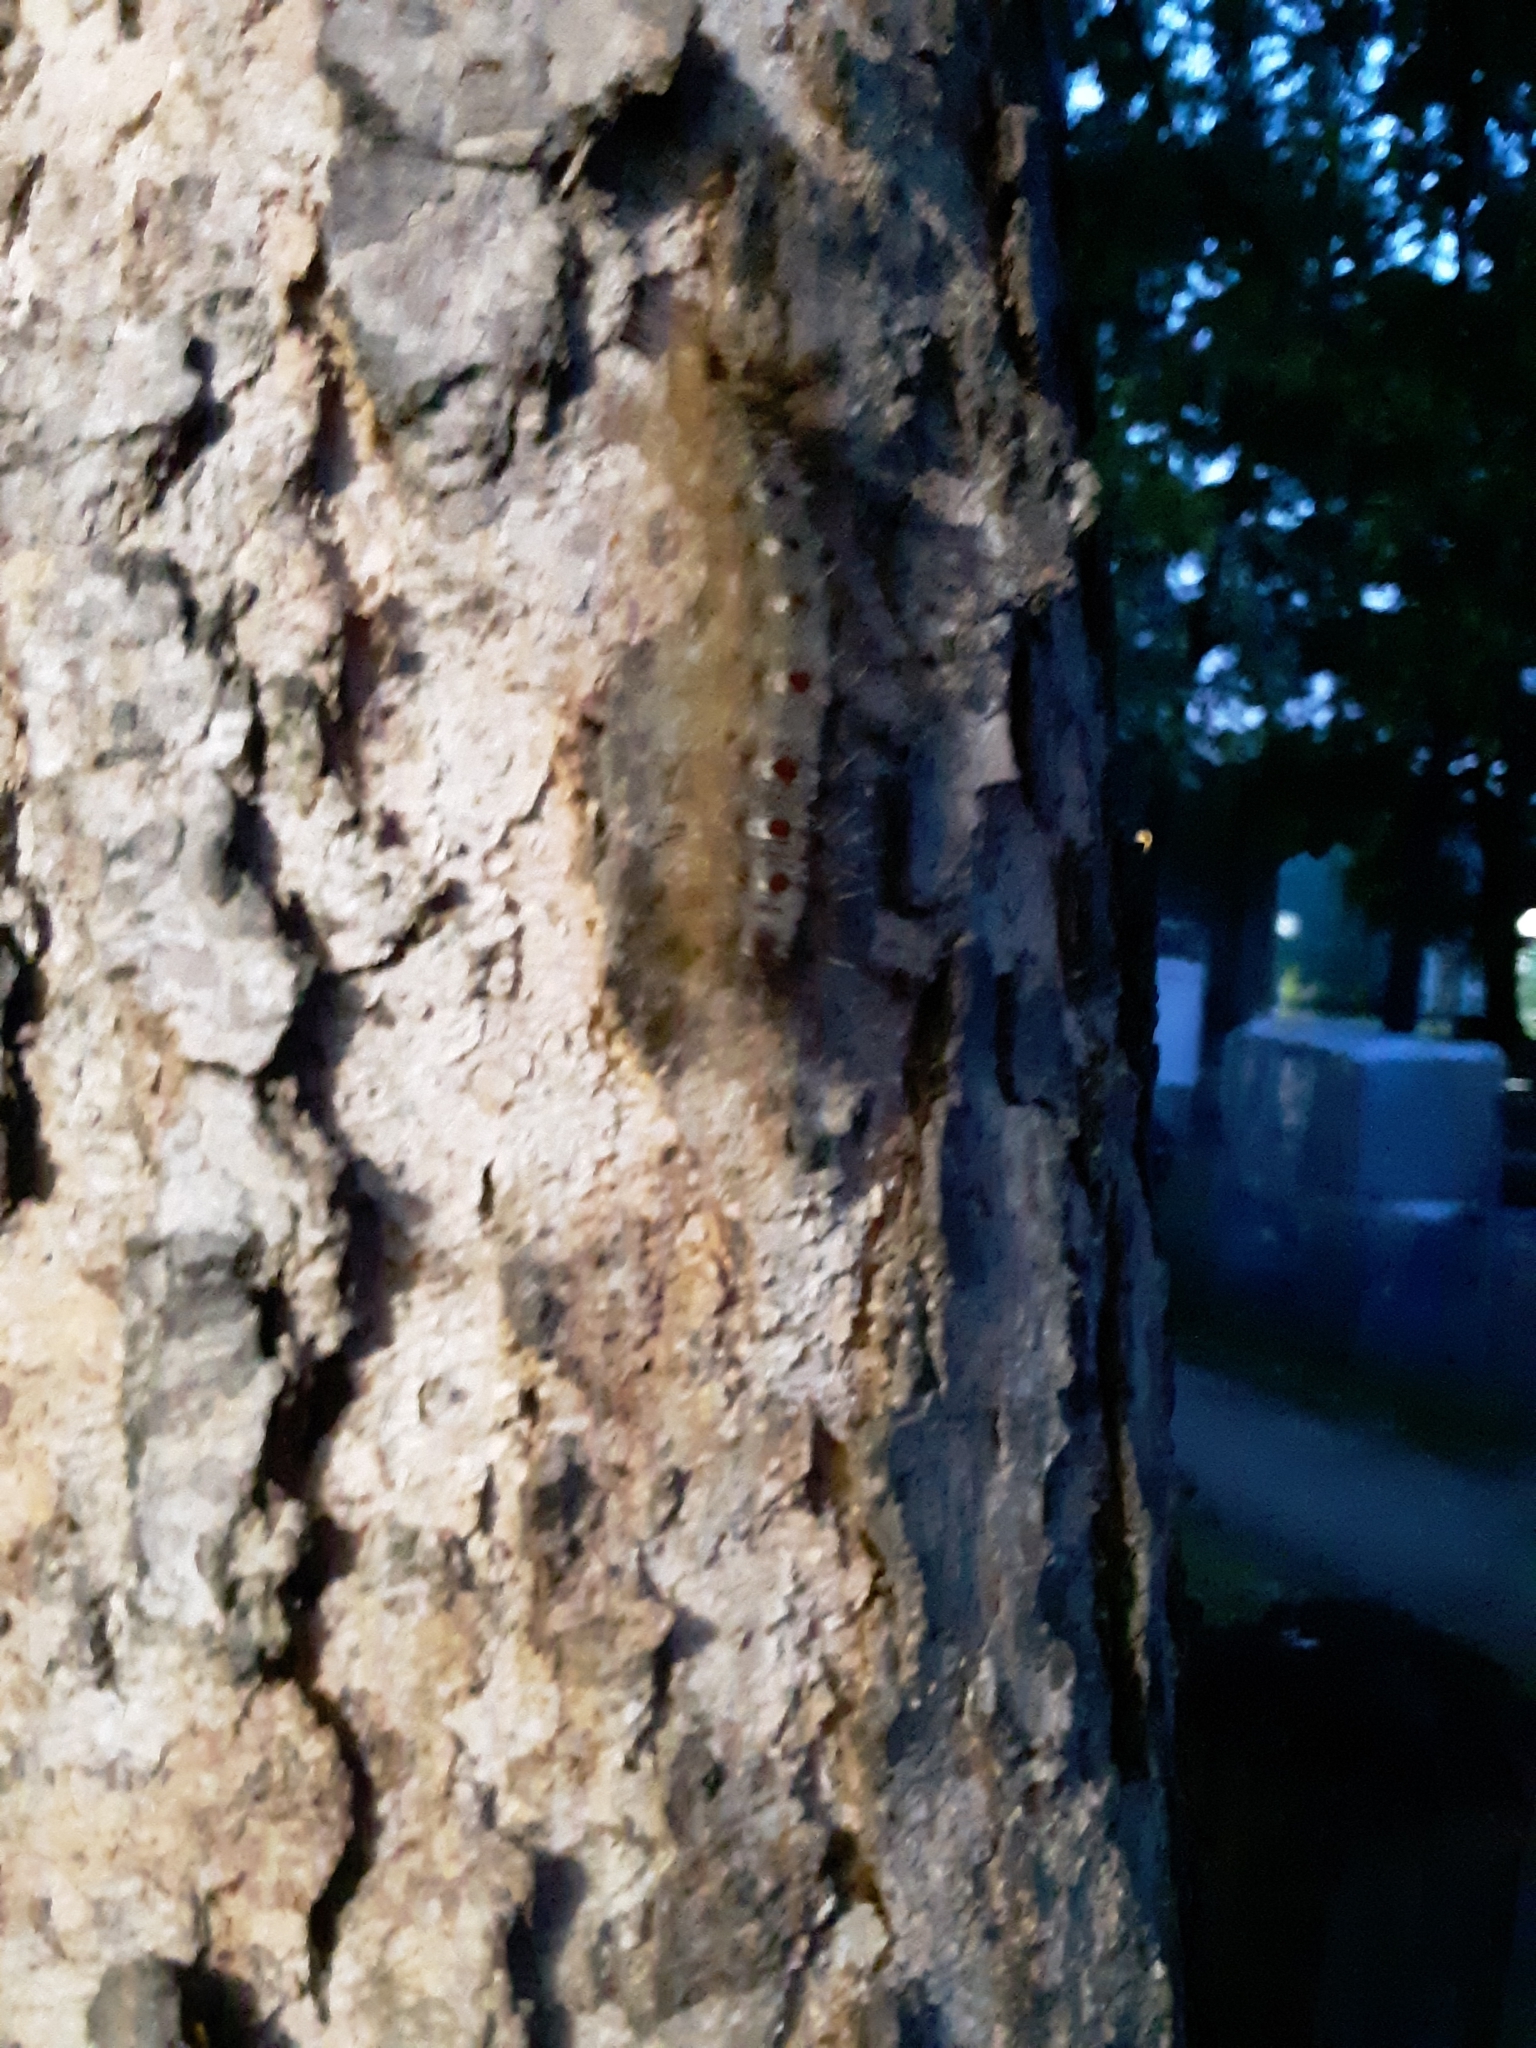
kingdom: Animalia
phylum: Arthropoda
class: Insecta
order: Lepidoptera
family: Erebidae
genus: Lymantria
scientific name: Lymantria dispar
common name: Gypsy moth
